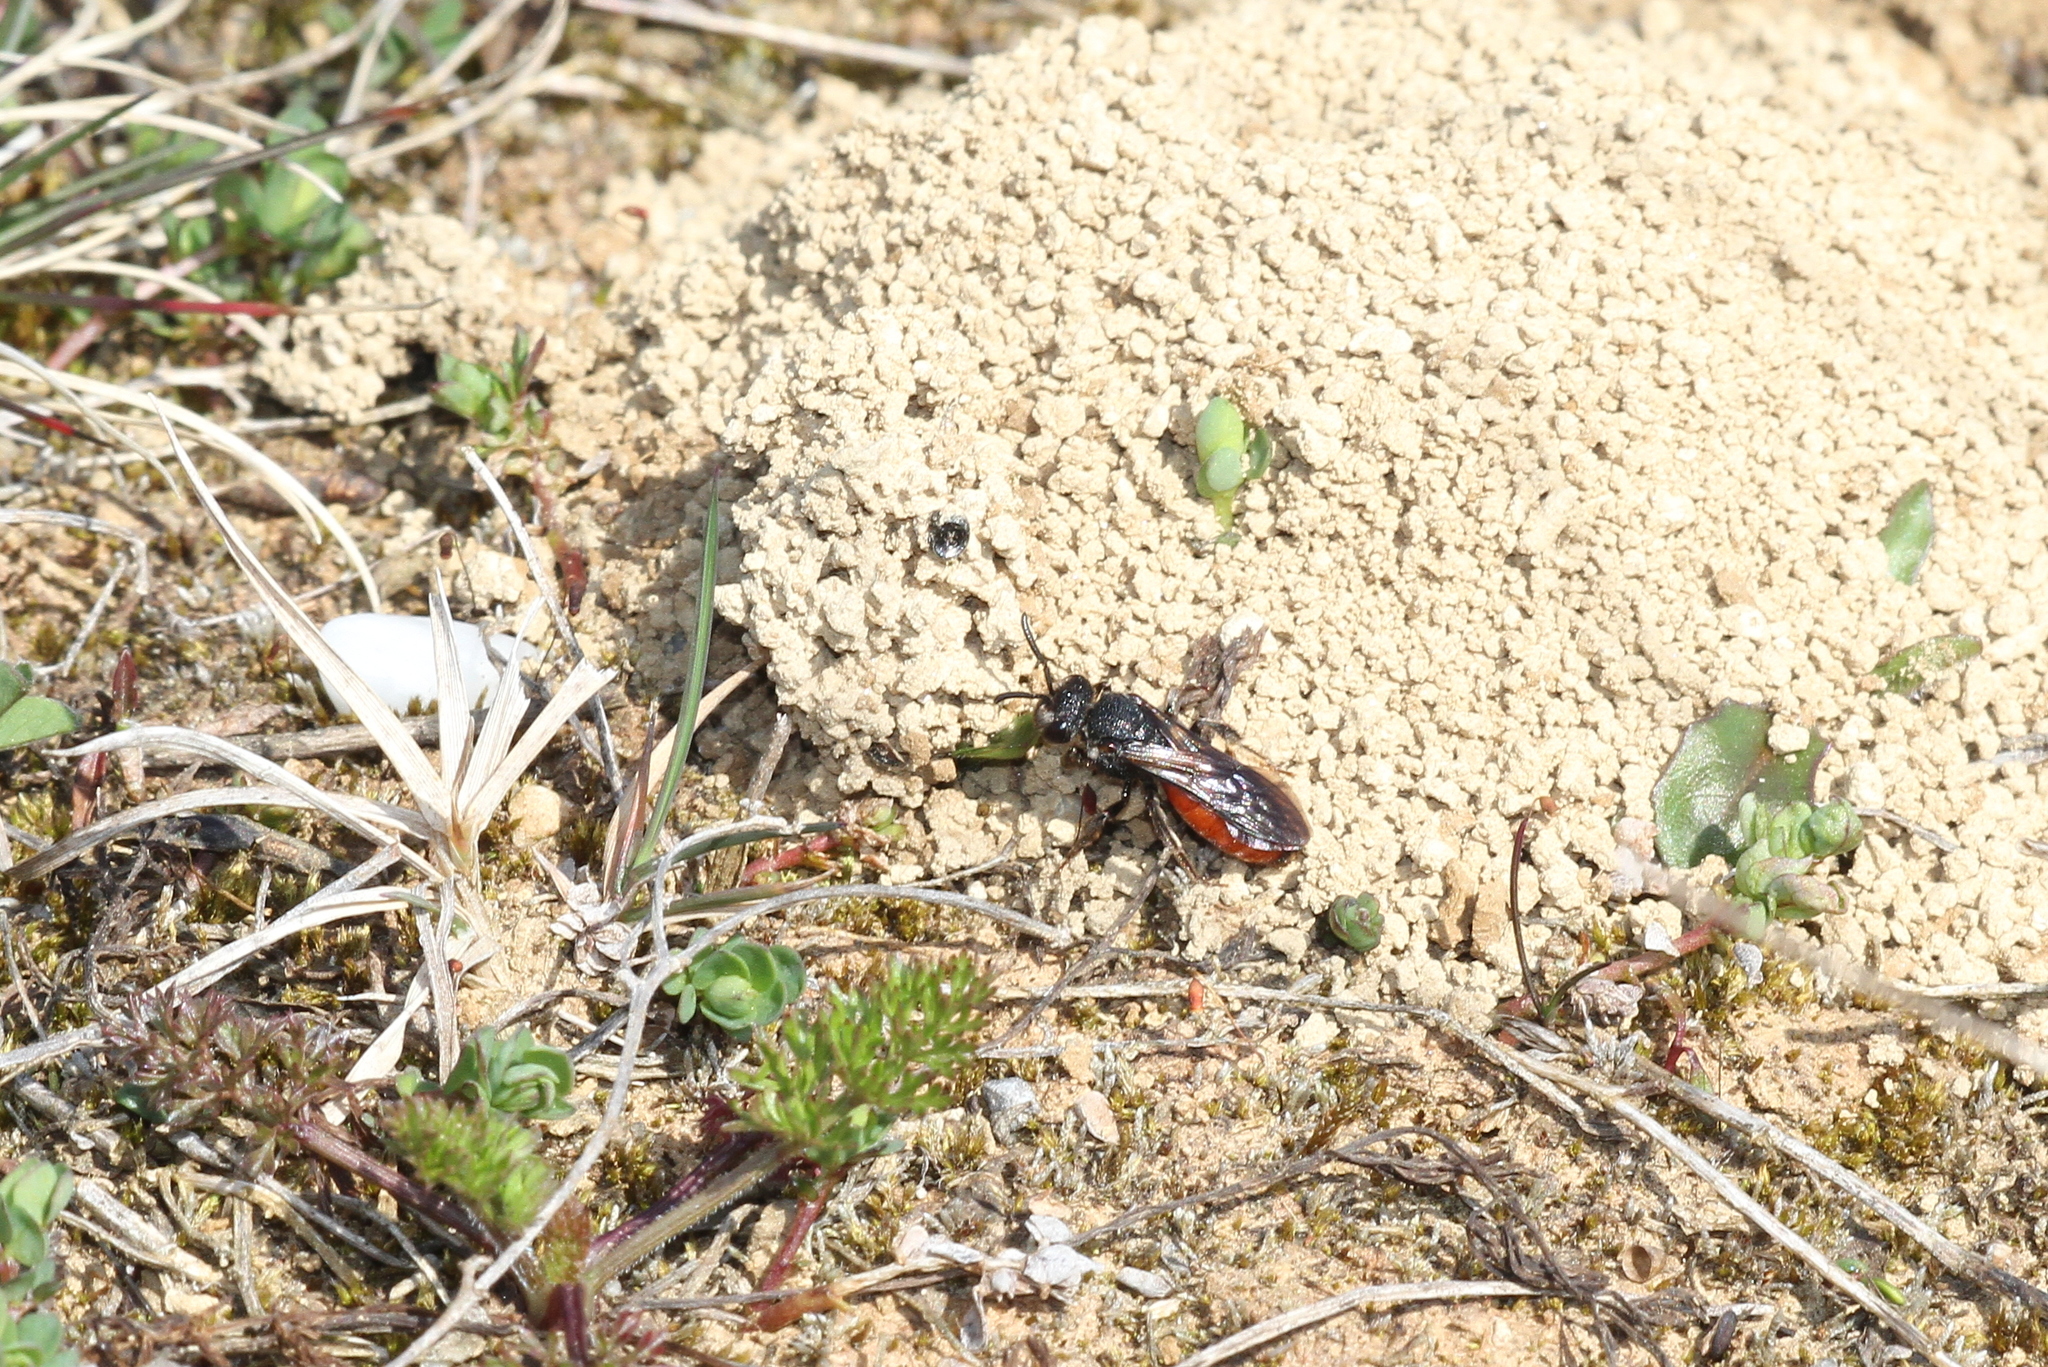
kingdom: Animalia
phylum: Arthropoda
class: Insecta
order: Hymenoptera
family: Halictidae
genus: Sphecodes
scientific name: Sphecodes albilabris
